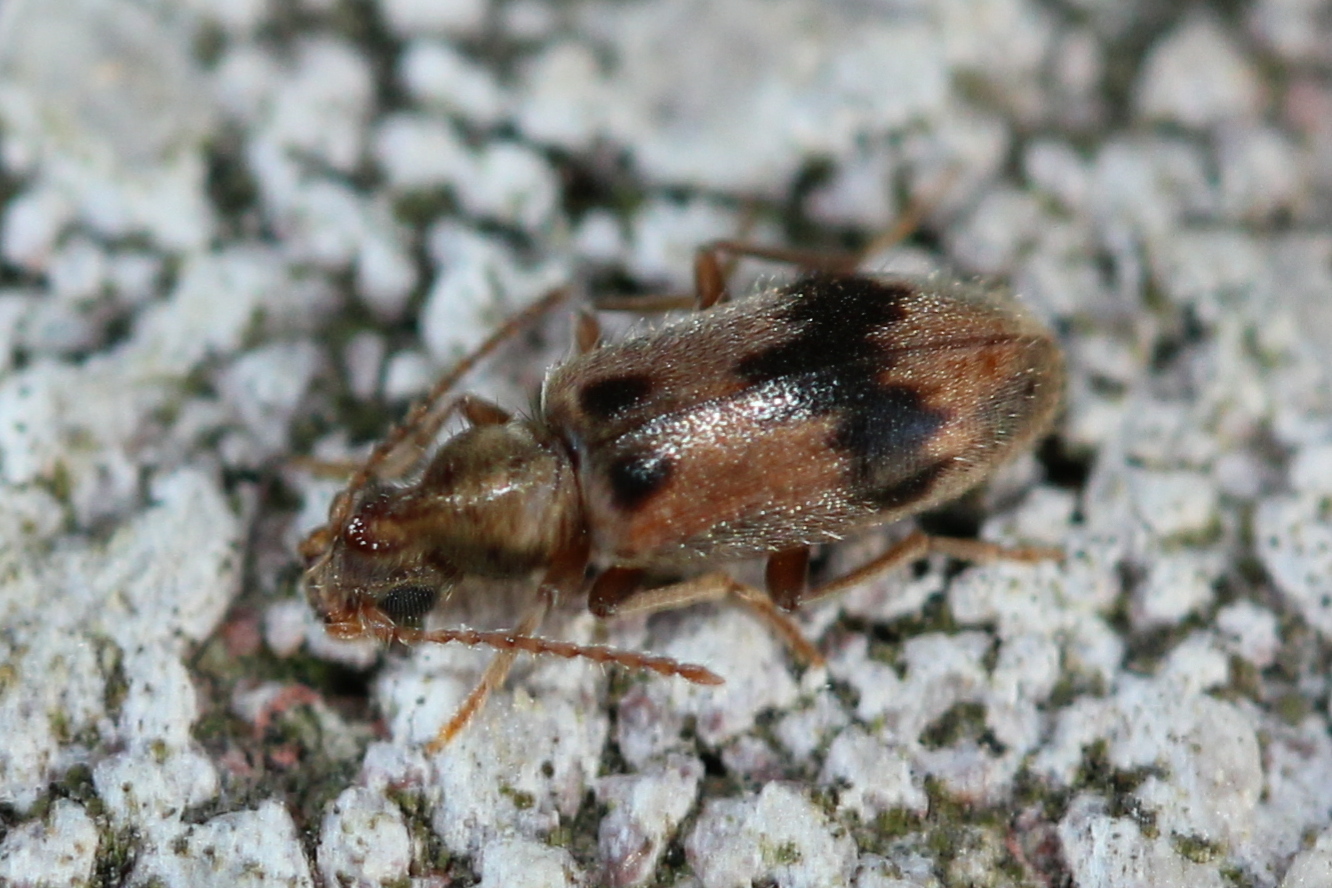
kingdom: Animalia
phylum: Arthropoda
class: Insecta
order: Coleoptera
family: Anthicidae
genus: Notoxus
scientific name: Notoxus desertus
